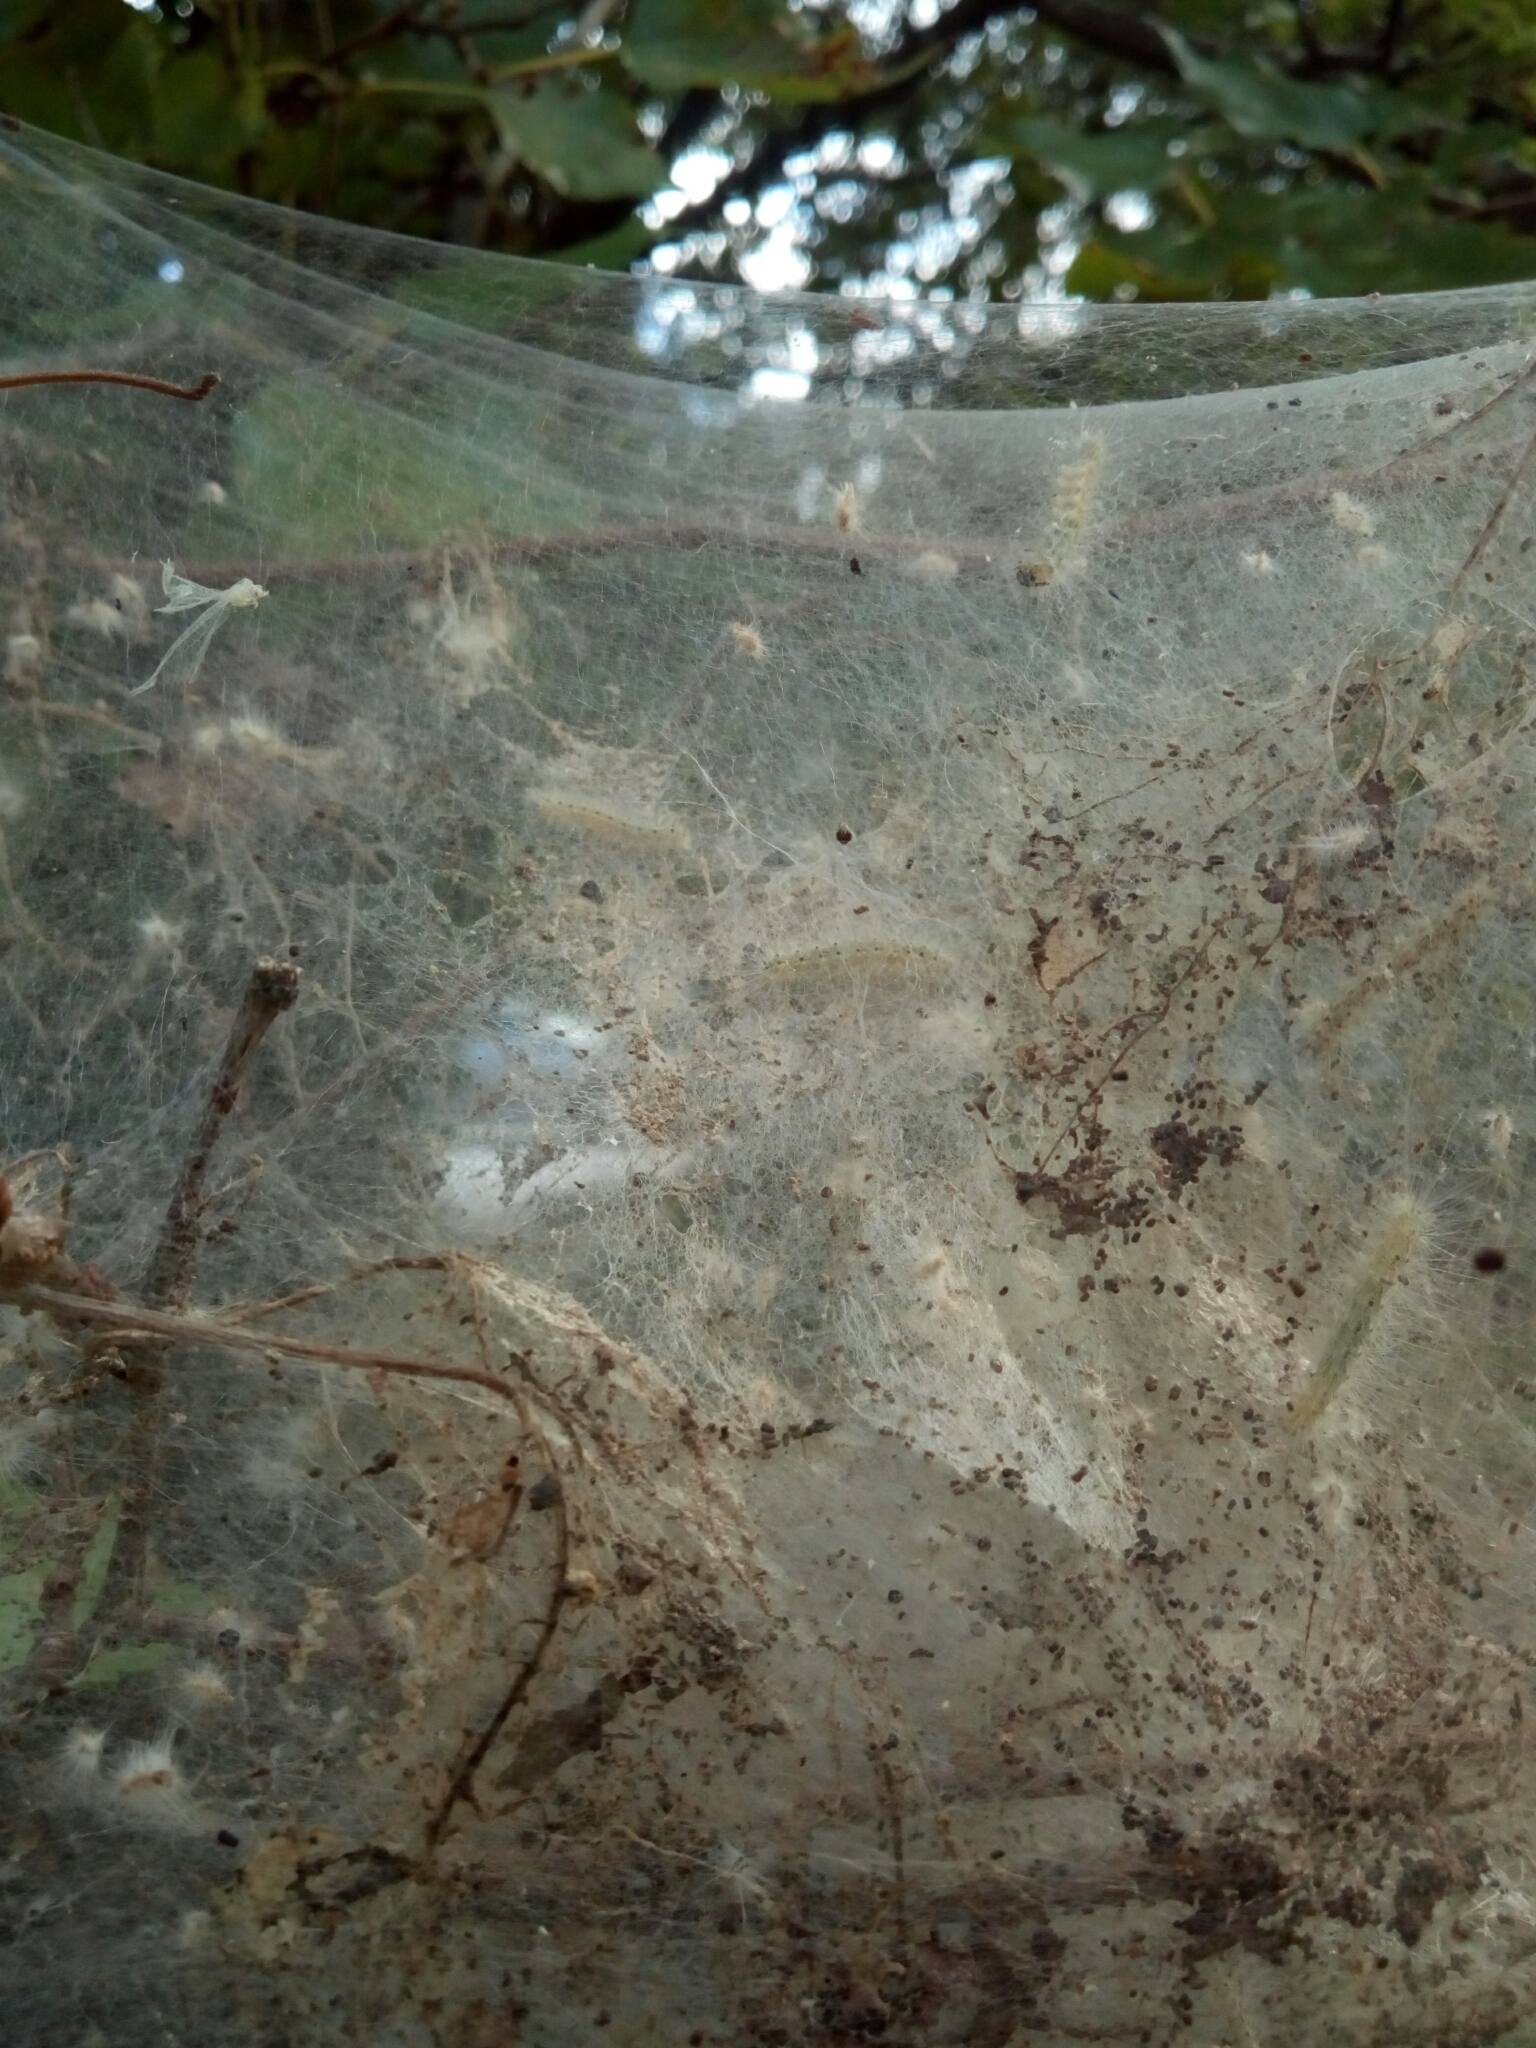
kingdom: Animalia
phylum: Arthropoda
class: Insecta
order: Lepidoptera
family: Erebidae
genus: Hyphantria
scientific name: Hyphantria cunea
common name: American white moth
